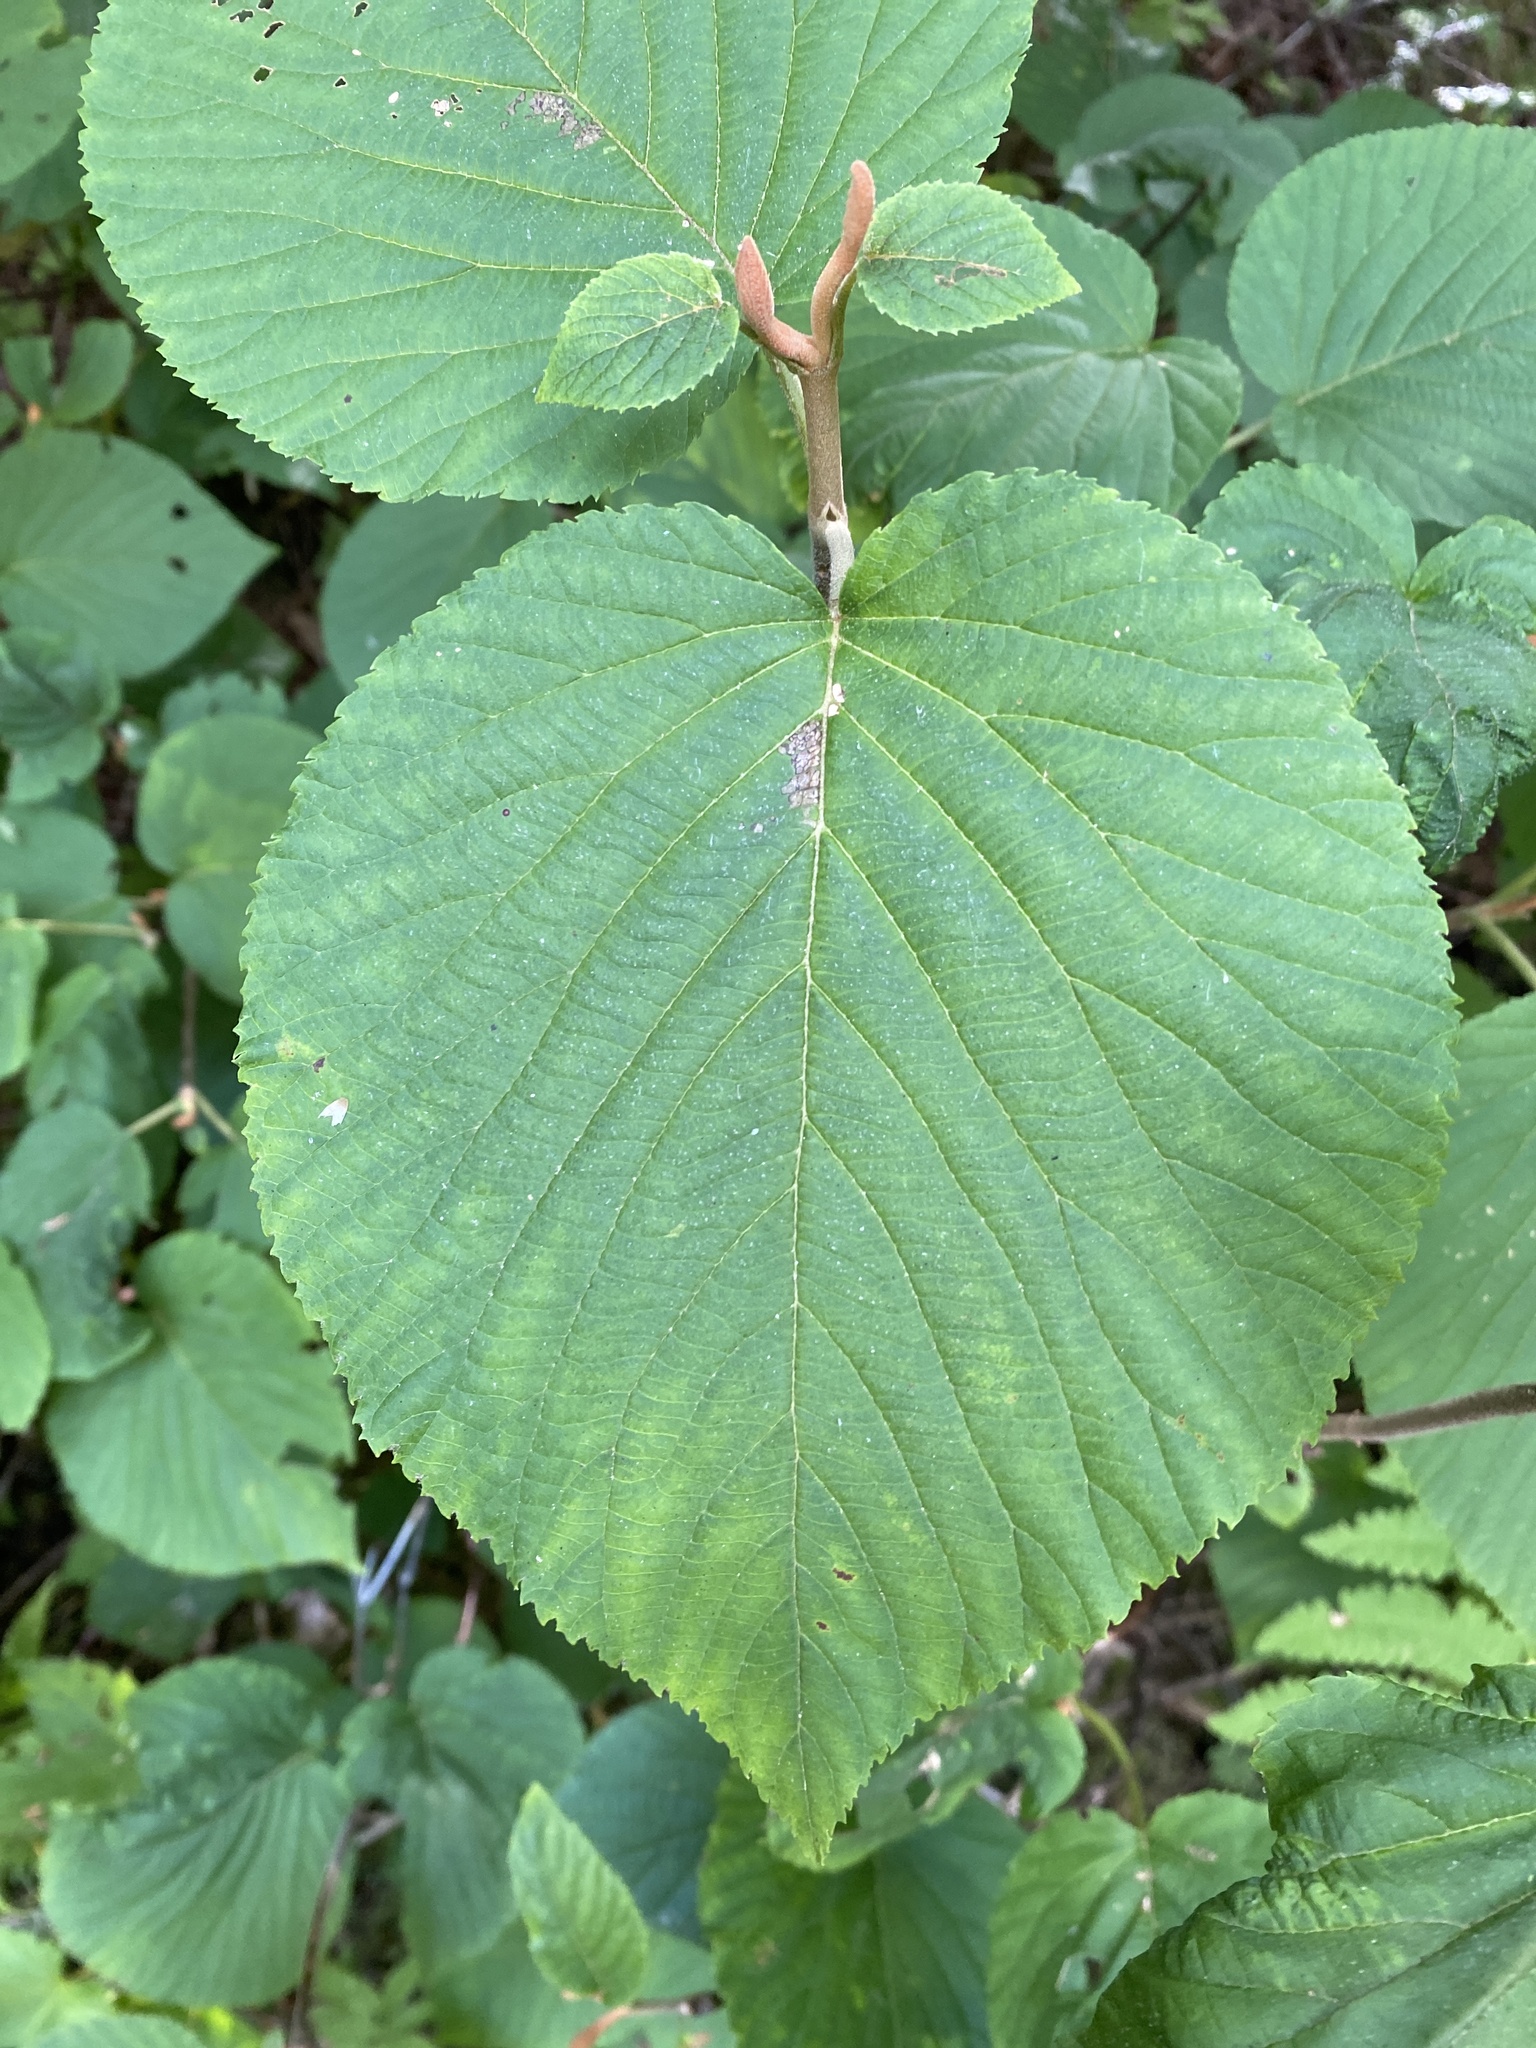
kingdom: Plantae
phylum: Tracheophyta
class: Magnoliopsida
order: Dipsacales
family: Viburnaceae
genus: Viburnum
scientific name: Viburnum lantanoides
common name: Hobblebush
